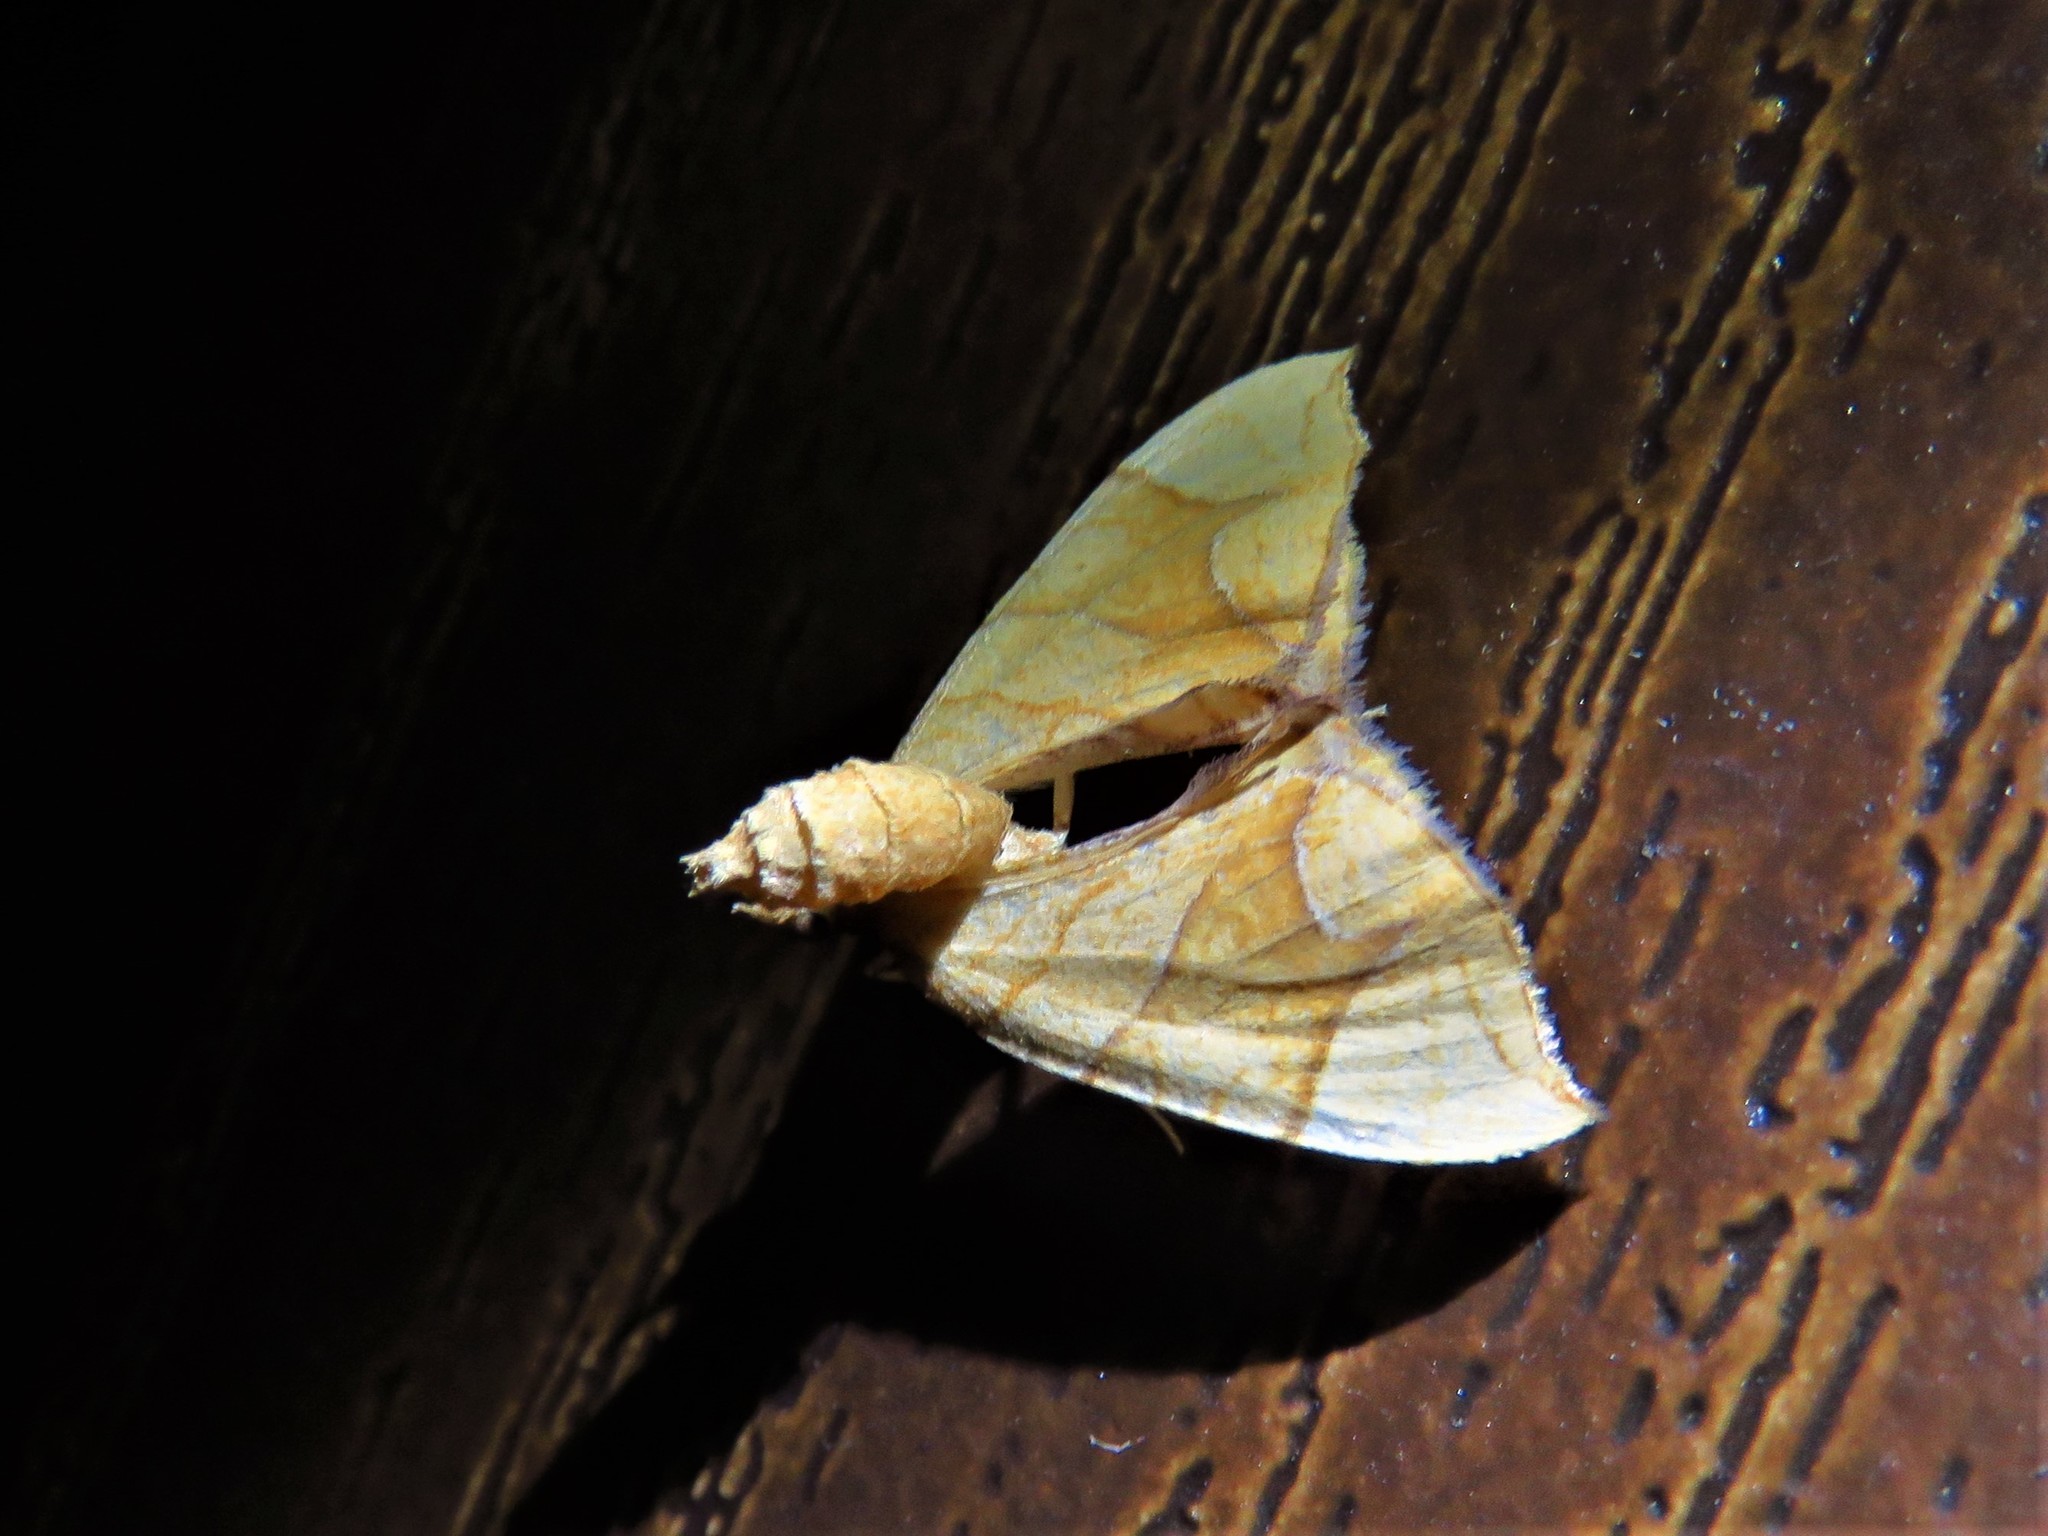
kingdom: Animalia
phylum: Arthropoda
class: Insecta
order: Lepidoptera
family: Geometridae
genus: Eulithis
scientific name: Eulithis
